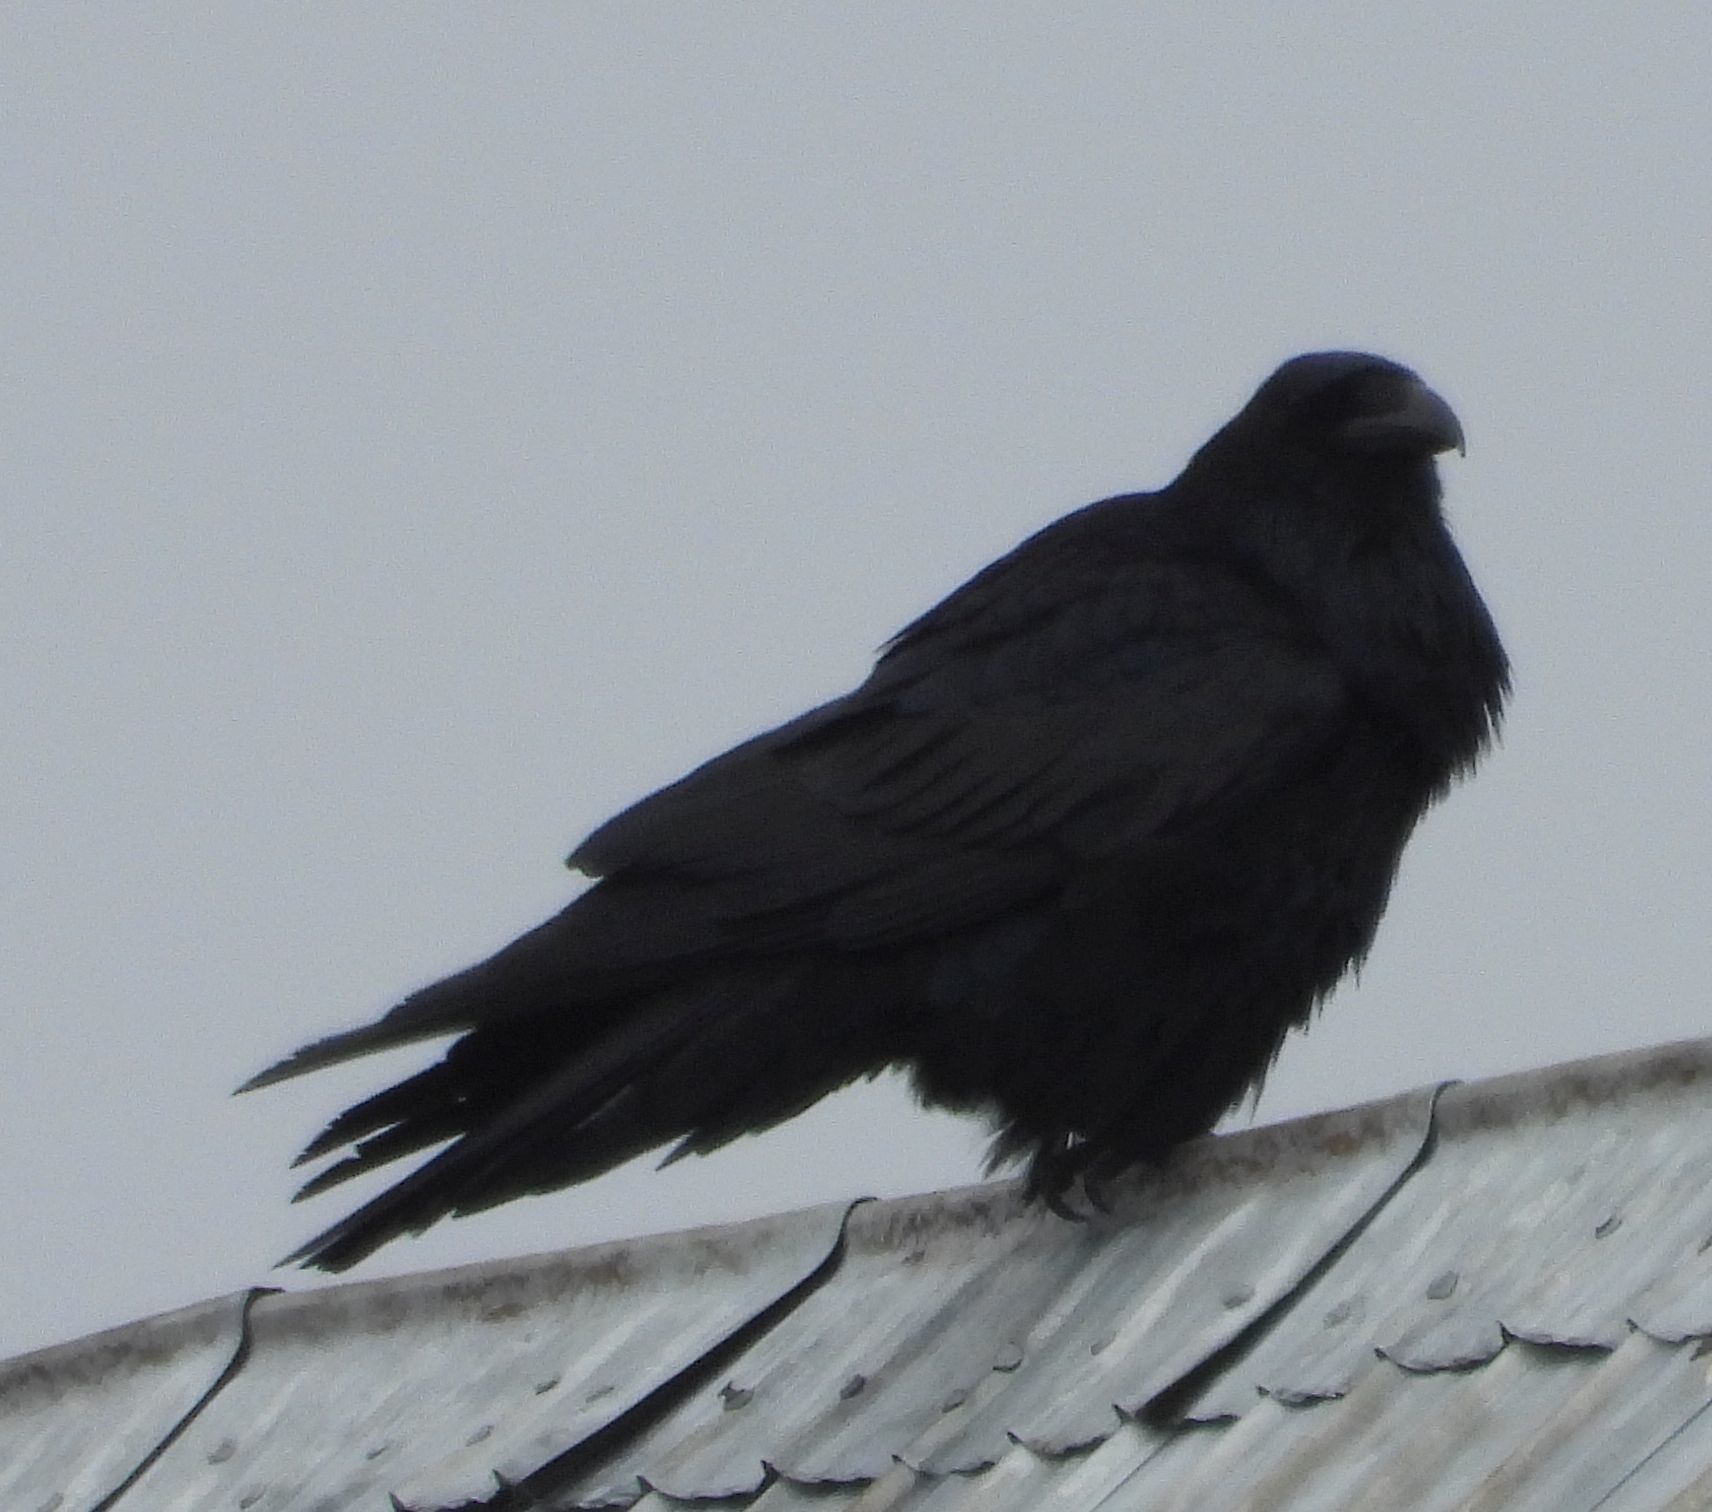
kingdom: Animalia
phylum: Chordata
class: Aves
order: Passeriformes
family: Corvidae
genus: Corvus
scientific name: Corvus corax
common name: Common raven
